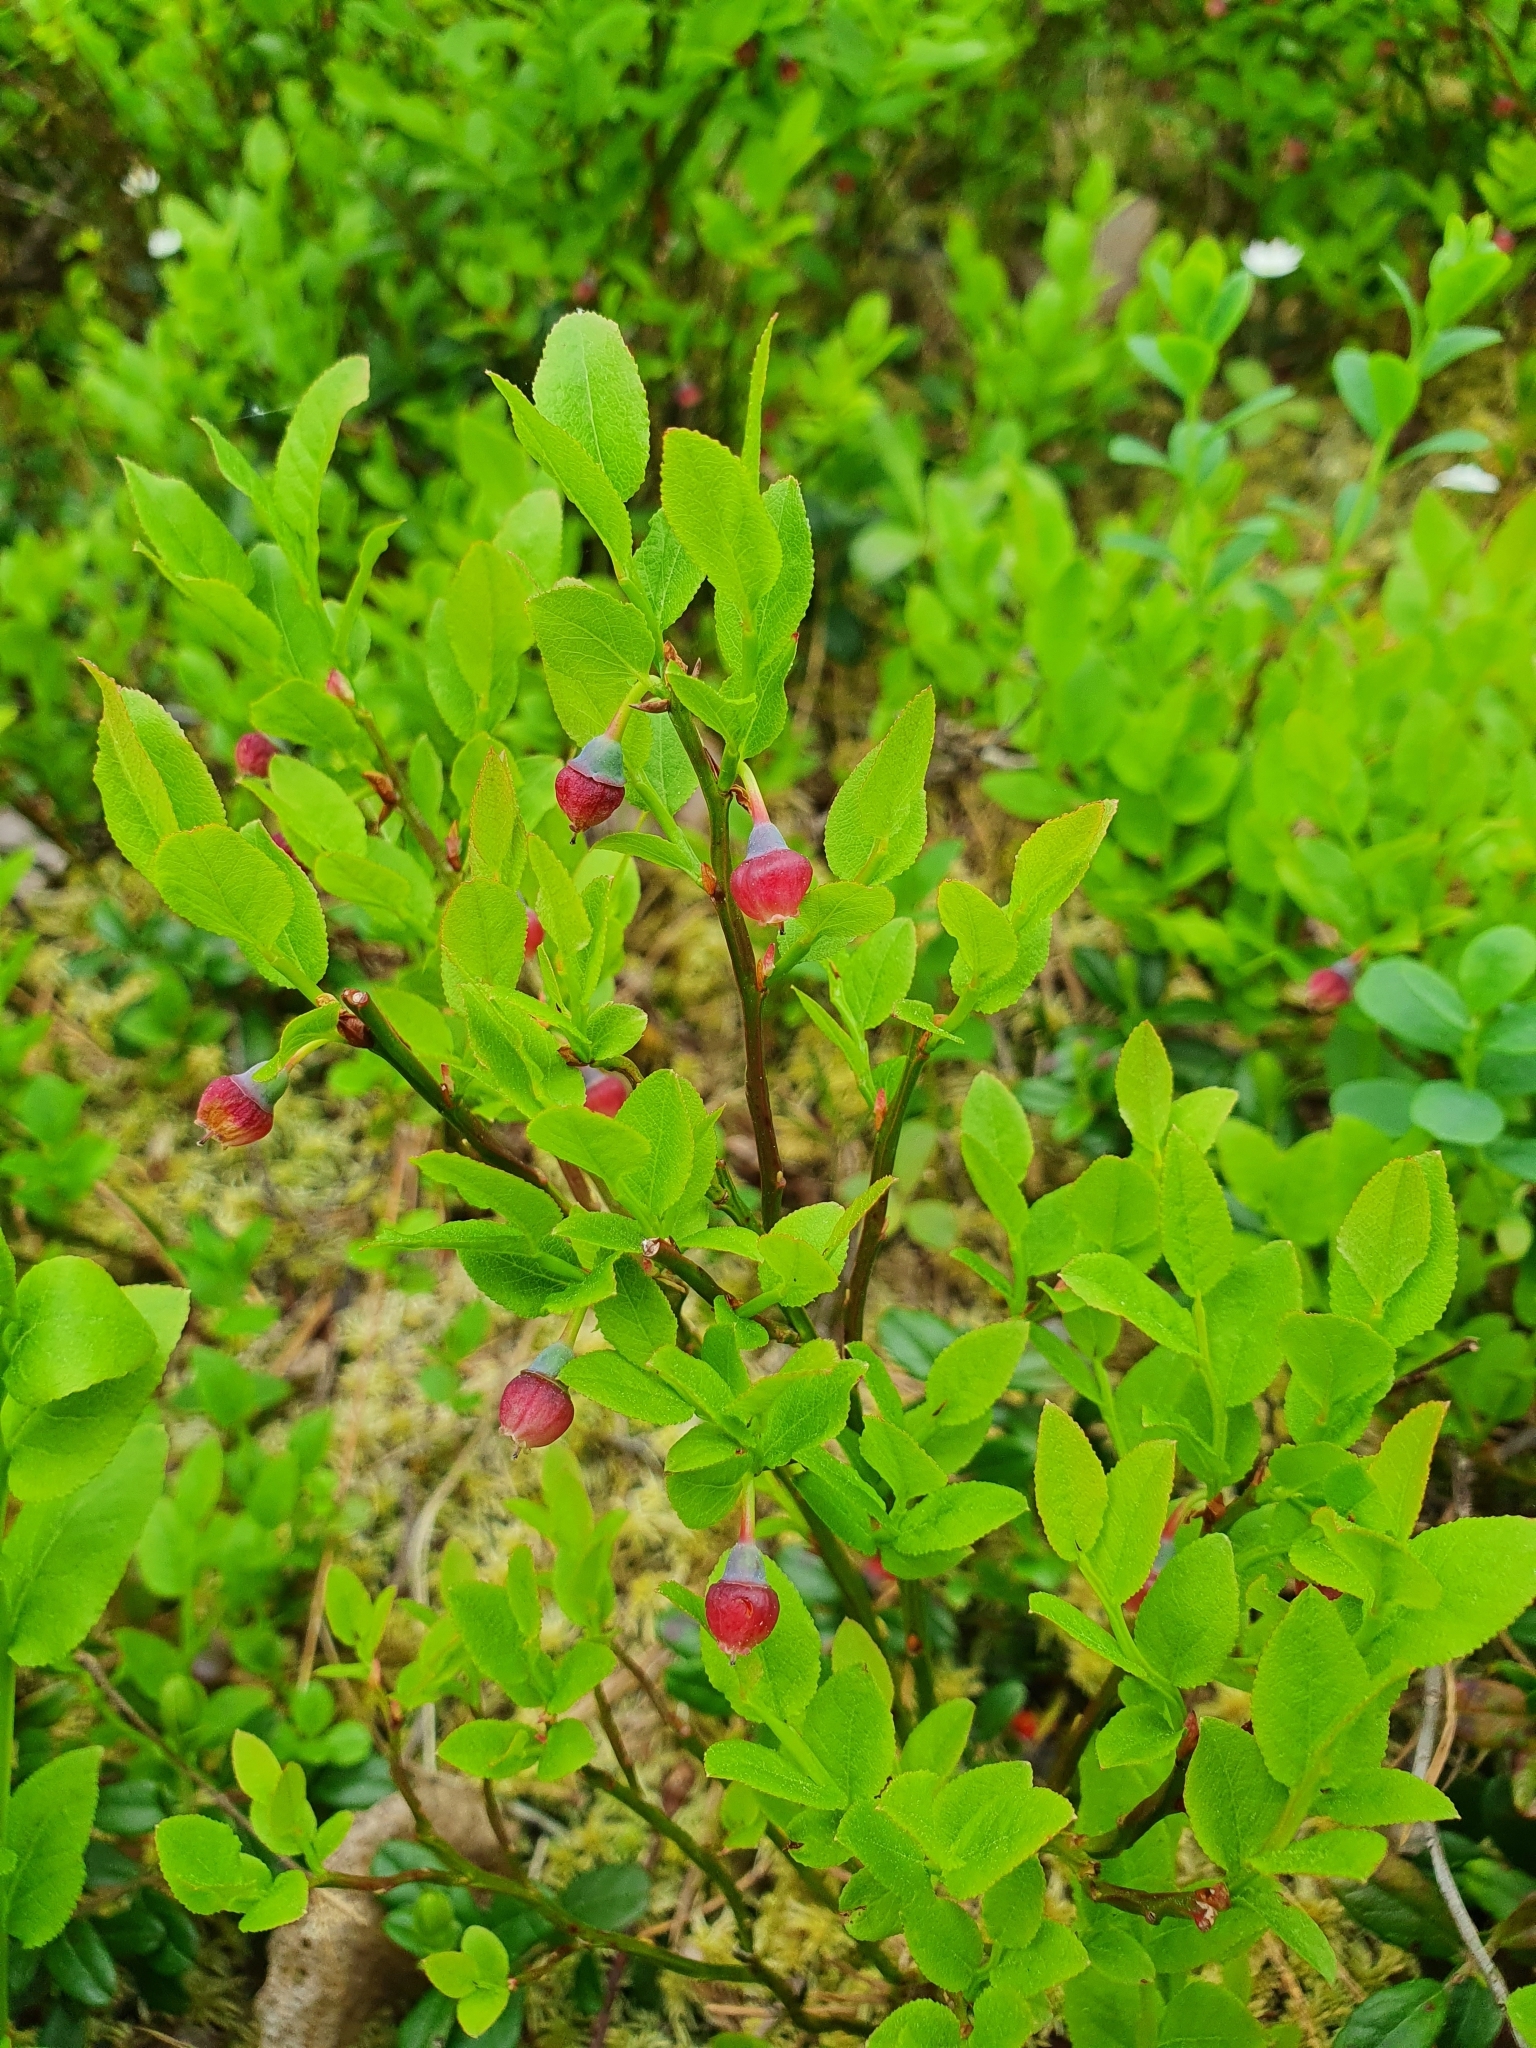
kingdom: Plantae
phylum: Tracheophyta
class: Magnoliopsida
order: Ericales
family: Ericaceae
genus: Vaccinium
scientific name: Vaccinium myrtillus
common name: Bilberry
